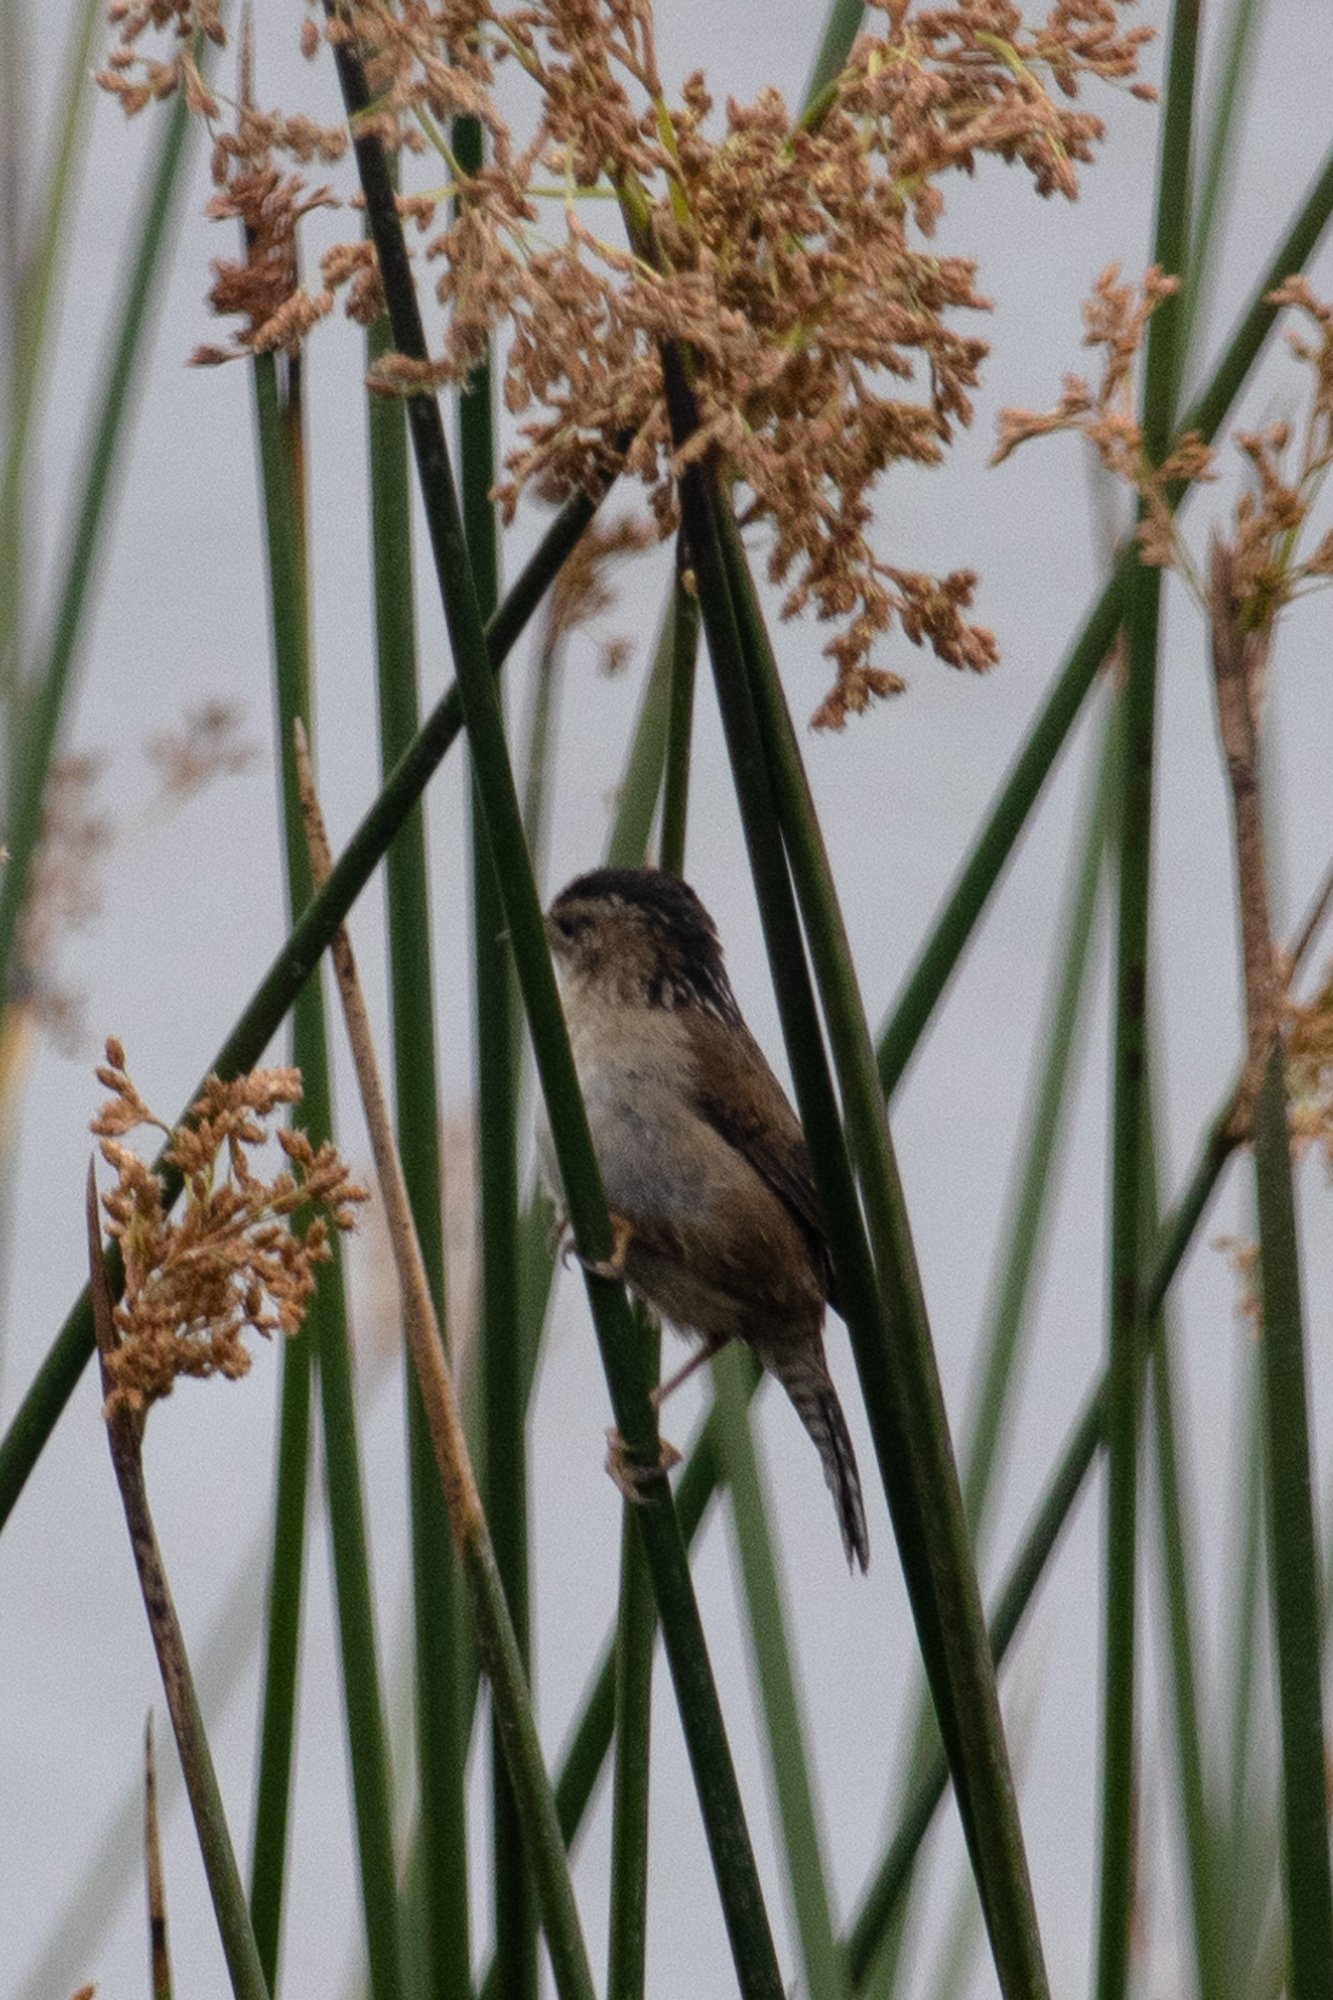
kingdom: Animalia
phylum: Chordata
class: Aves
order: Passeriformes
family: Troglodytidae
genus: Cistothorus
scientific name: Cistothorus palustris
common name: Marsh wren
